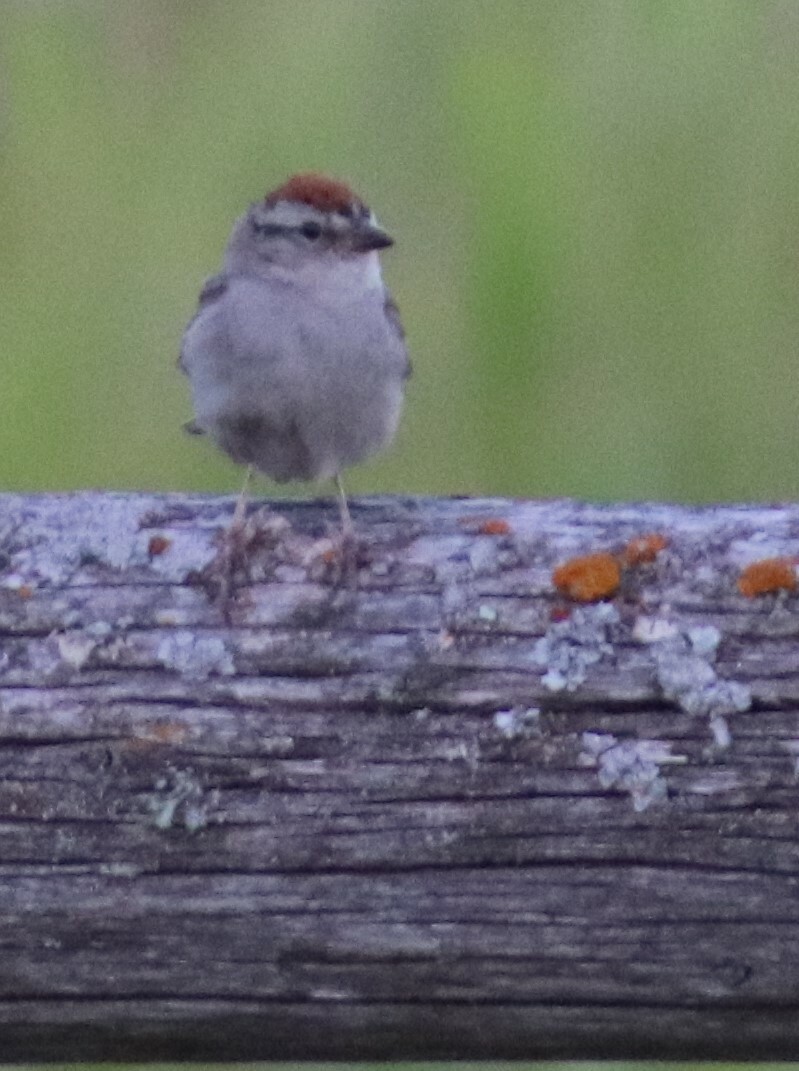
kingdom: Animalia
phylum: Chordata
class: Aves
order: Passeriformes
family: Passerellidae
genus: Spizella
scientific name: Spizella passerina
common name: Chipping sparrow
